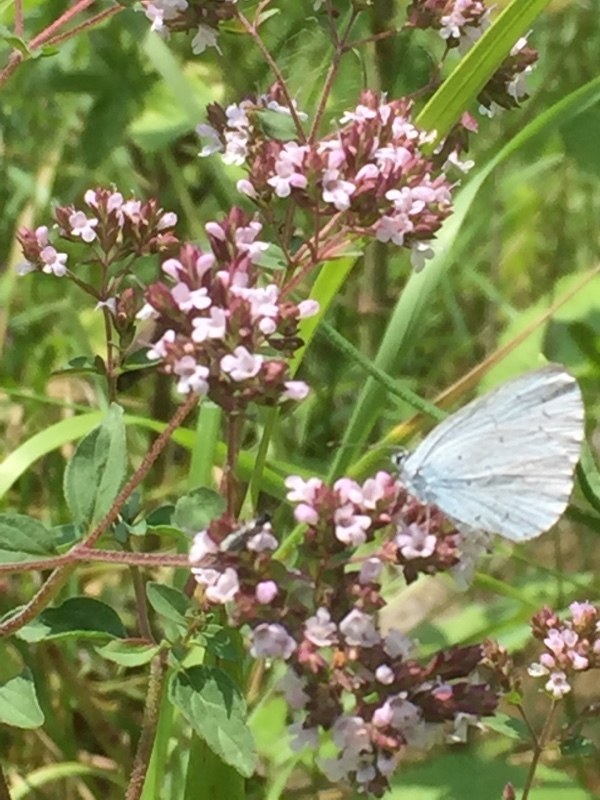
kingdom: Plantae
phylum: Tracheophyta
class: Magnoliopsida
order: Lamiales
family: Lamiaceae
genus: Origanum
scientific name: Origanum vulgare
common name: Wild marjoram
